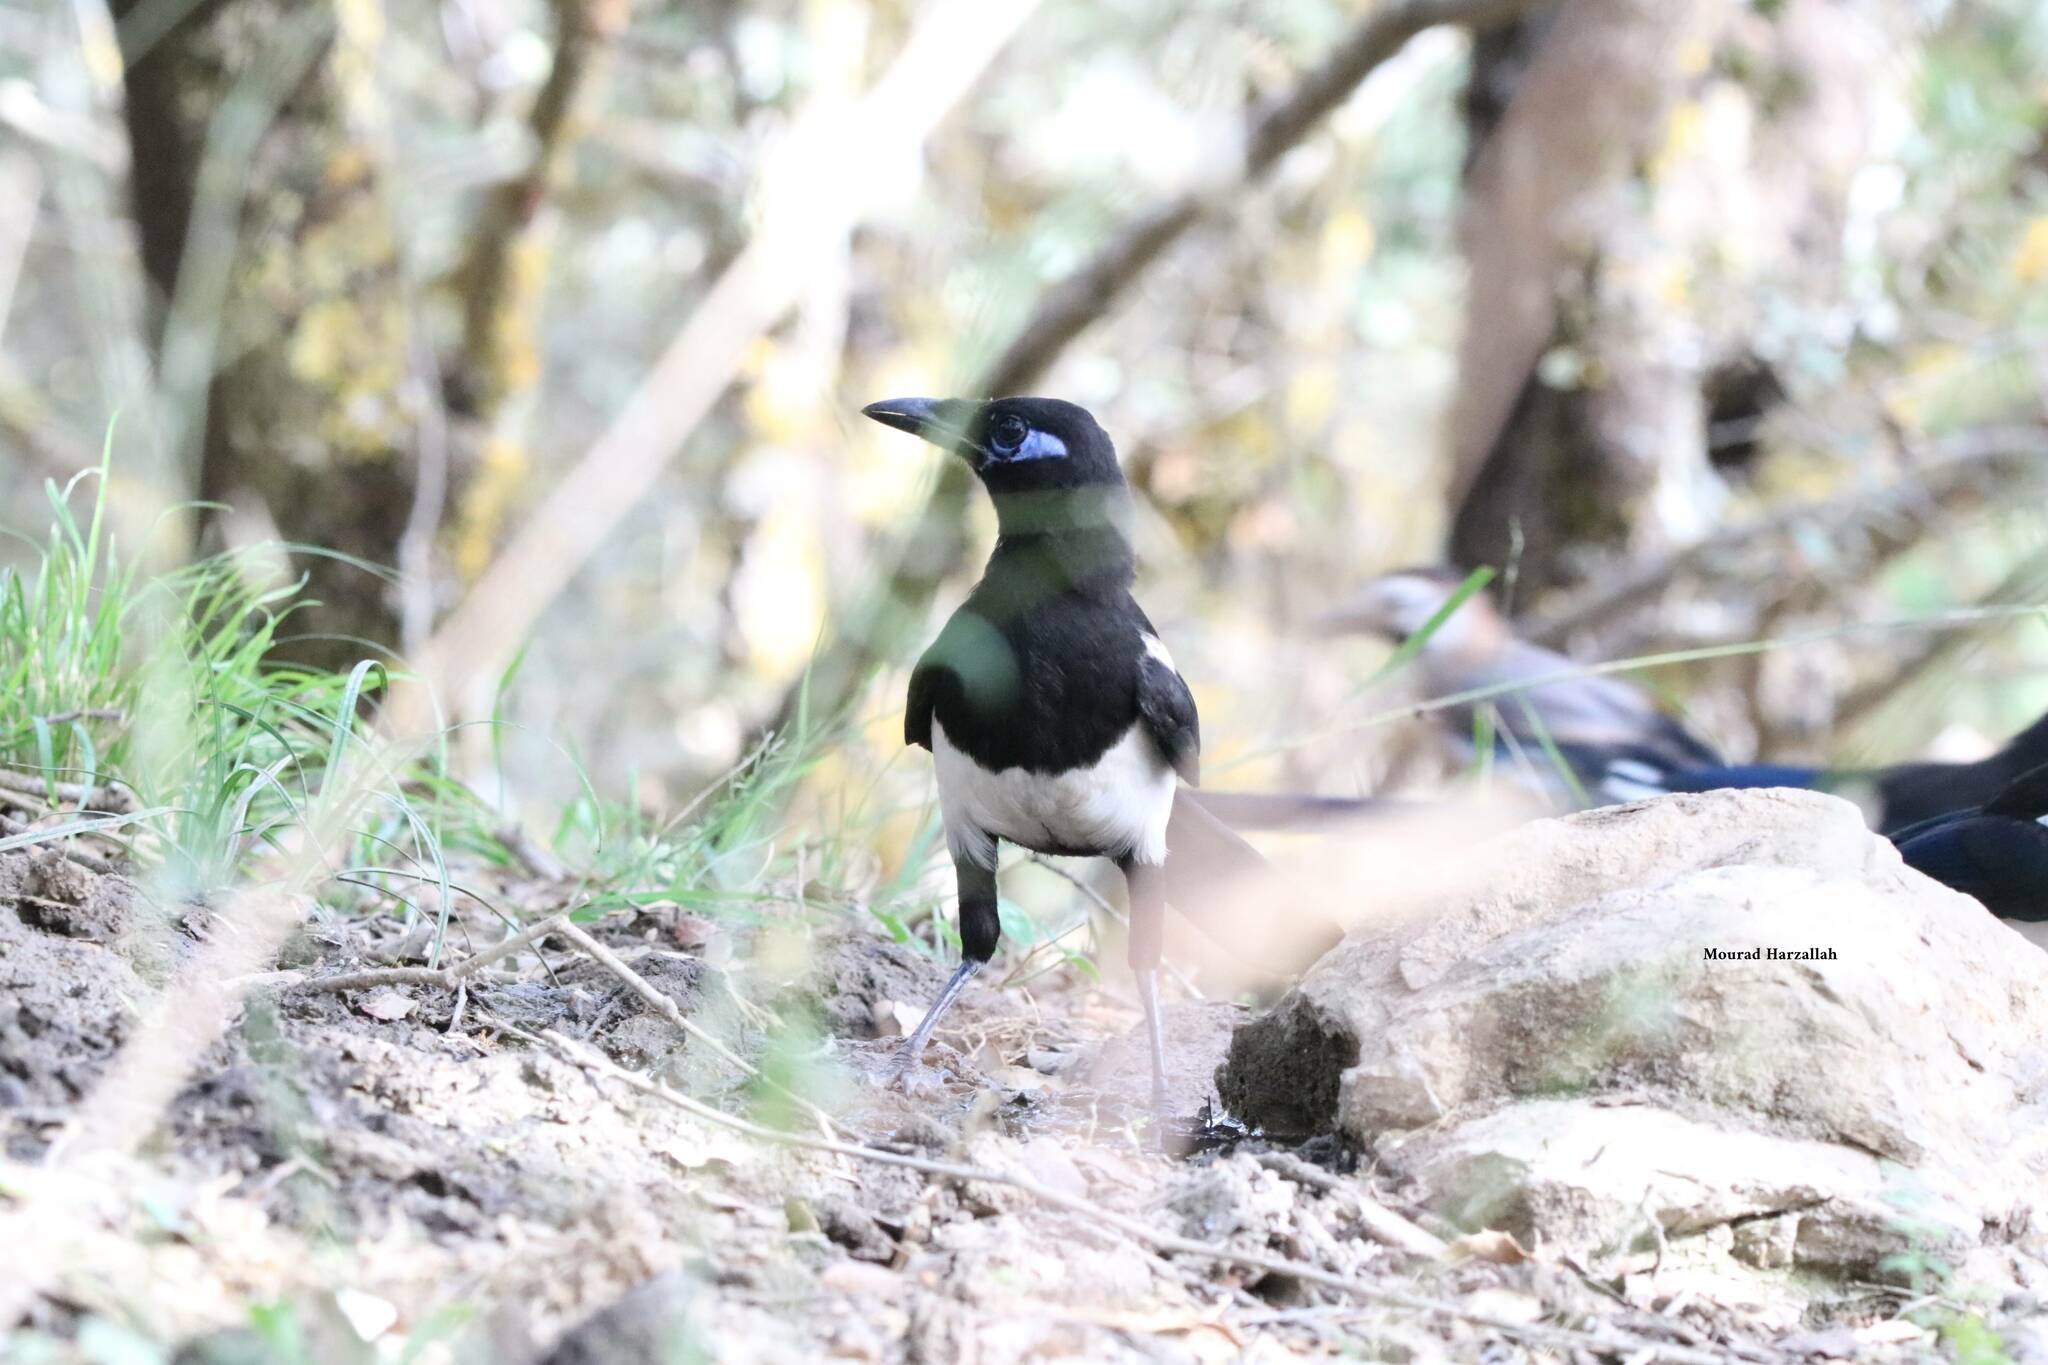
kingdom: Animalia
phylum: Chordata
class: Aves
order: Passeriformes
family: Corvidae
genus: Pica
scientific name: Pica mauritanica
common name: Maghreb magpie
